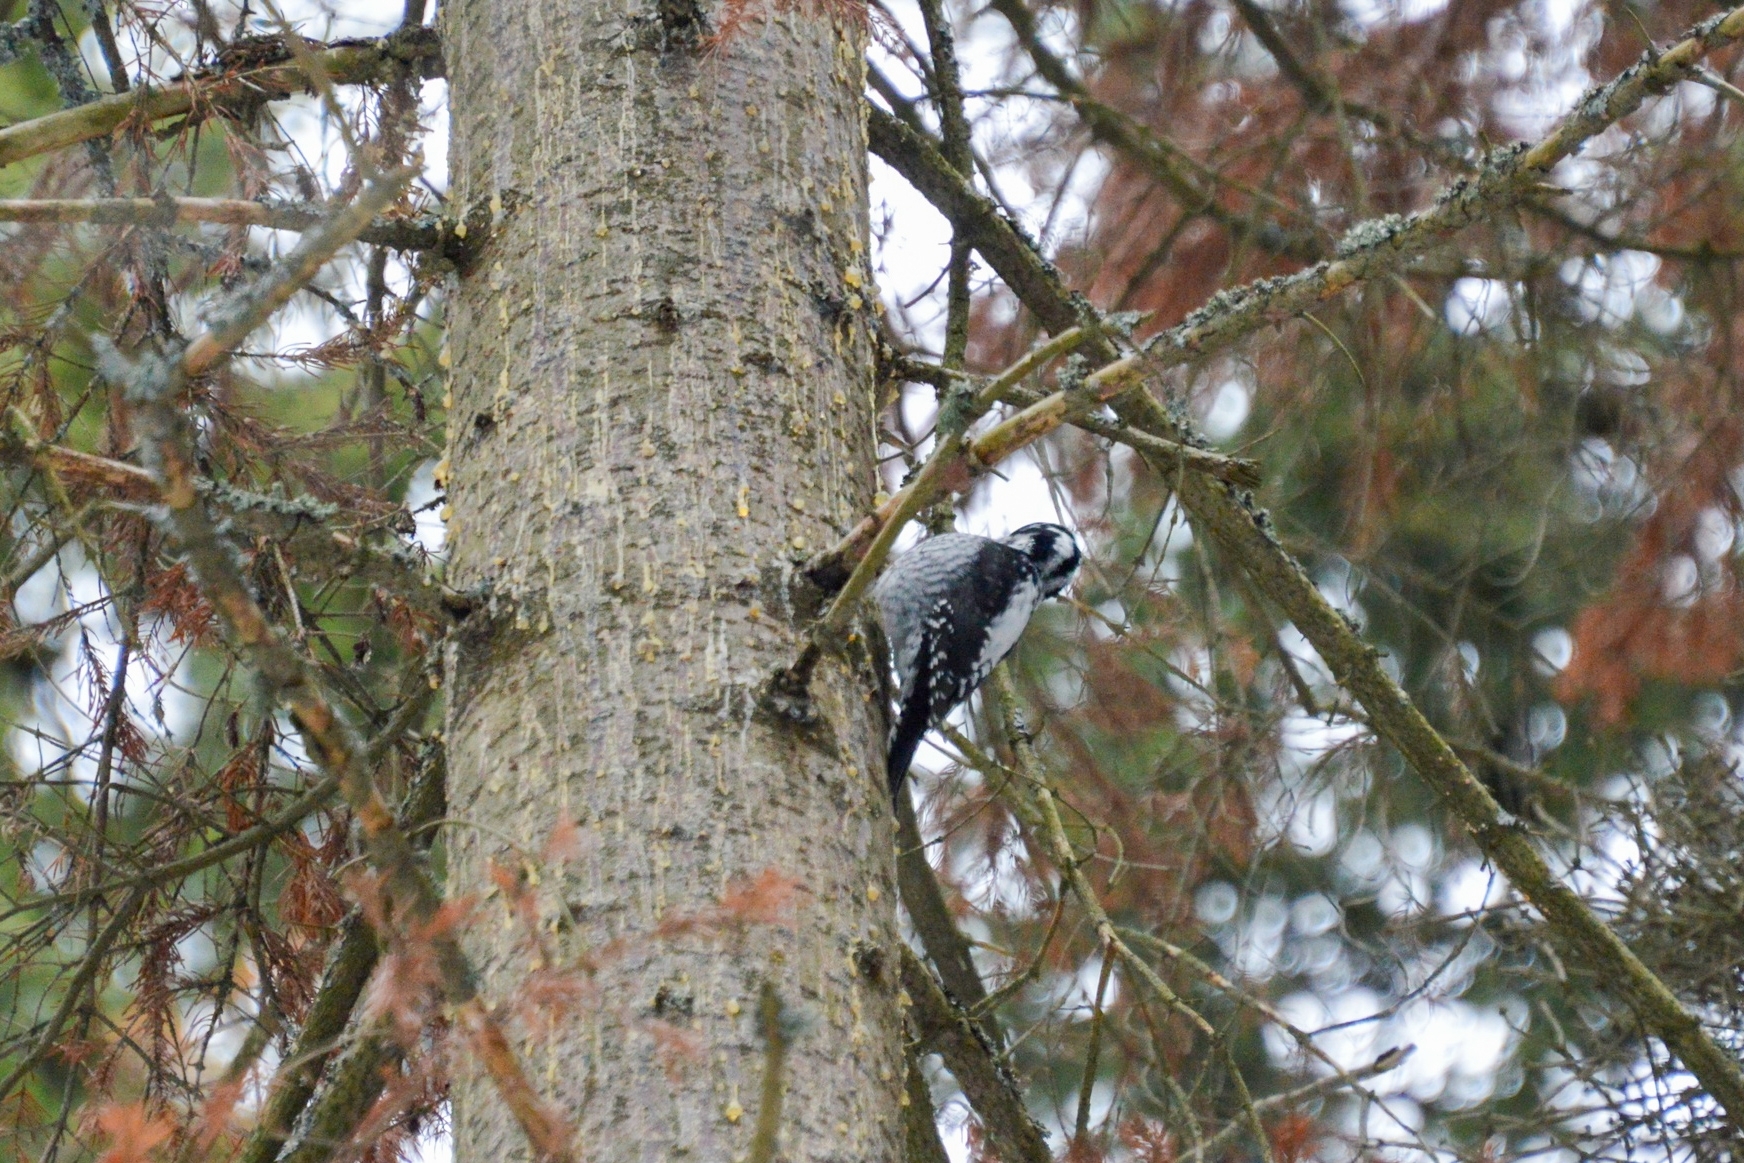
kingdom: Animalia
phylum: Chordata
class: Aves
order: Piciformes
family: Picidae
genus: Picoides
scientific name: Picoides tridactylus
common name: Eurasian three-toed woodpecker
